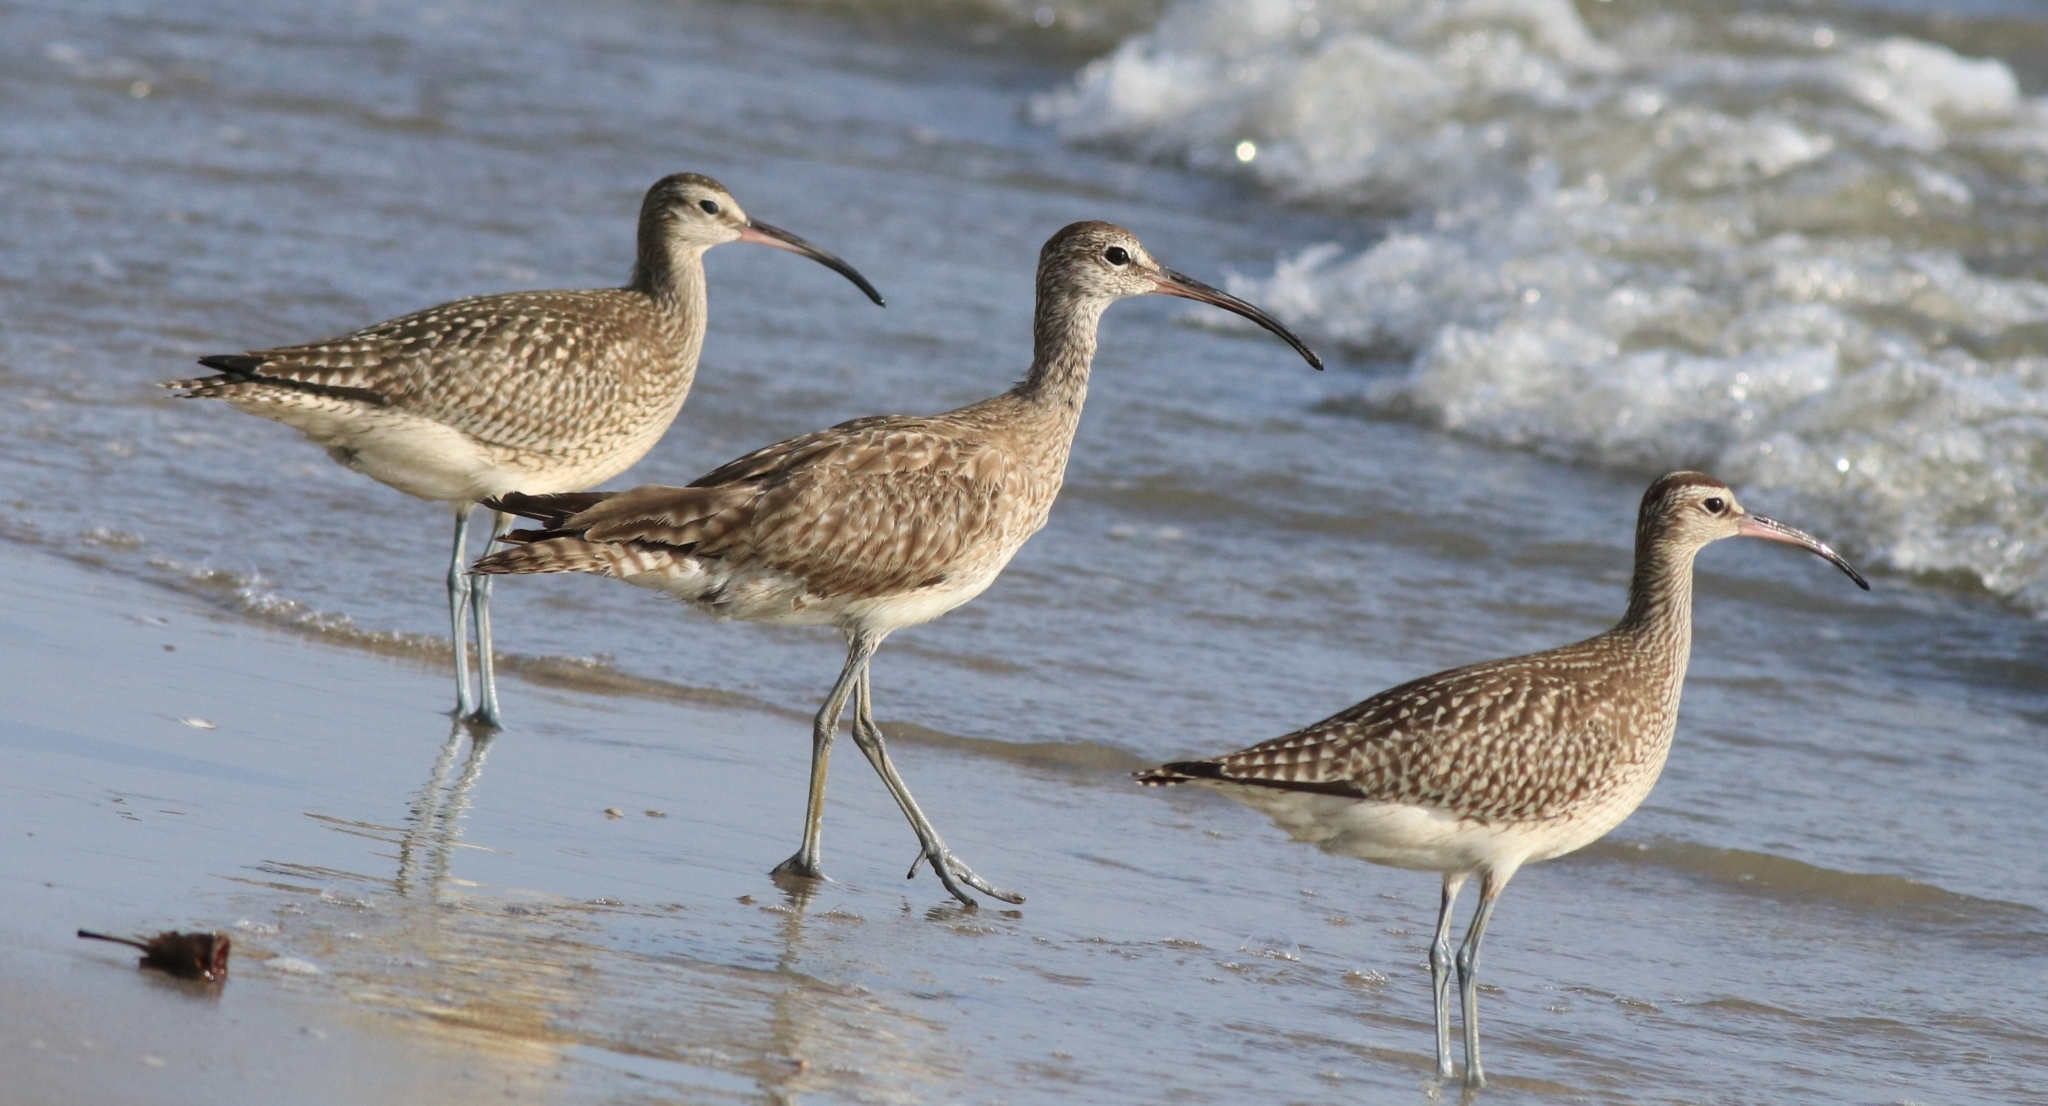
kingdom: Animalia
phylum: Chordata
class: Aves
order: Charadriiformes
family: Scolopacidae
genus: Numenius
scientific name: Numenius phaeopus
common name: Whimbrel
